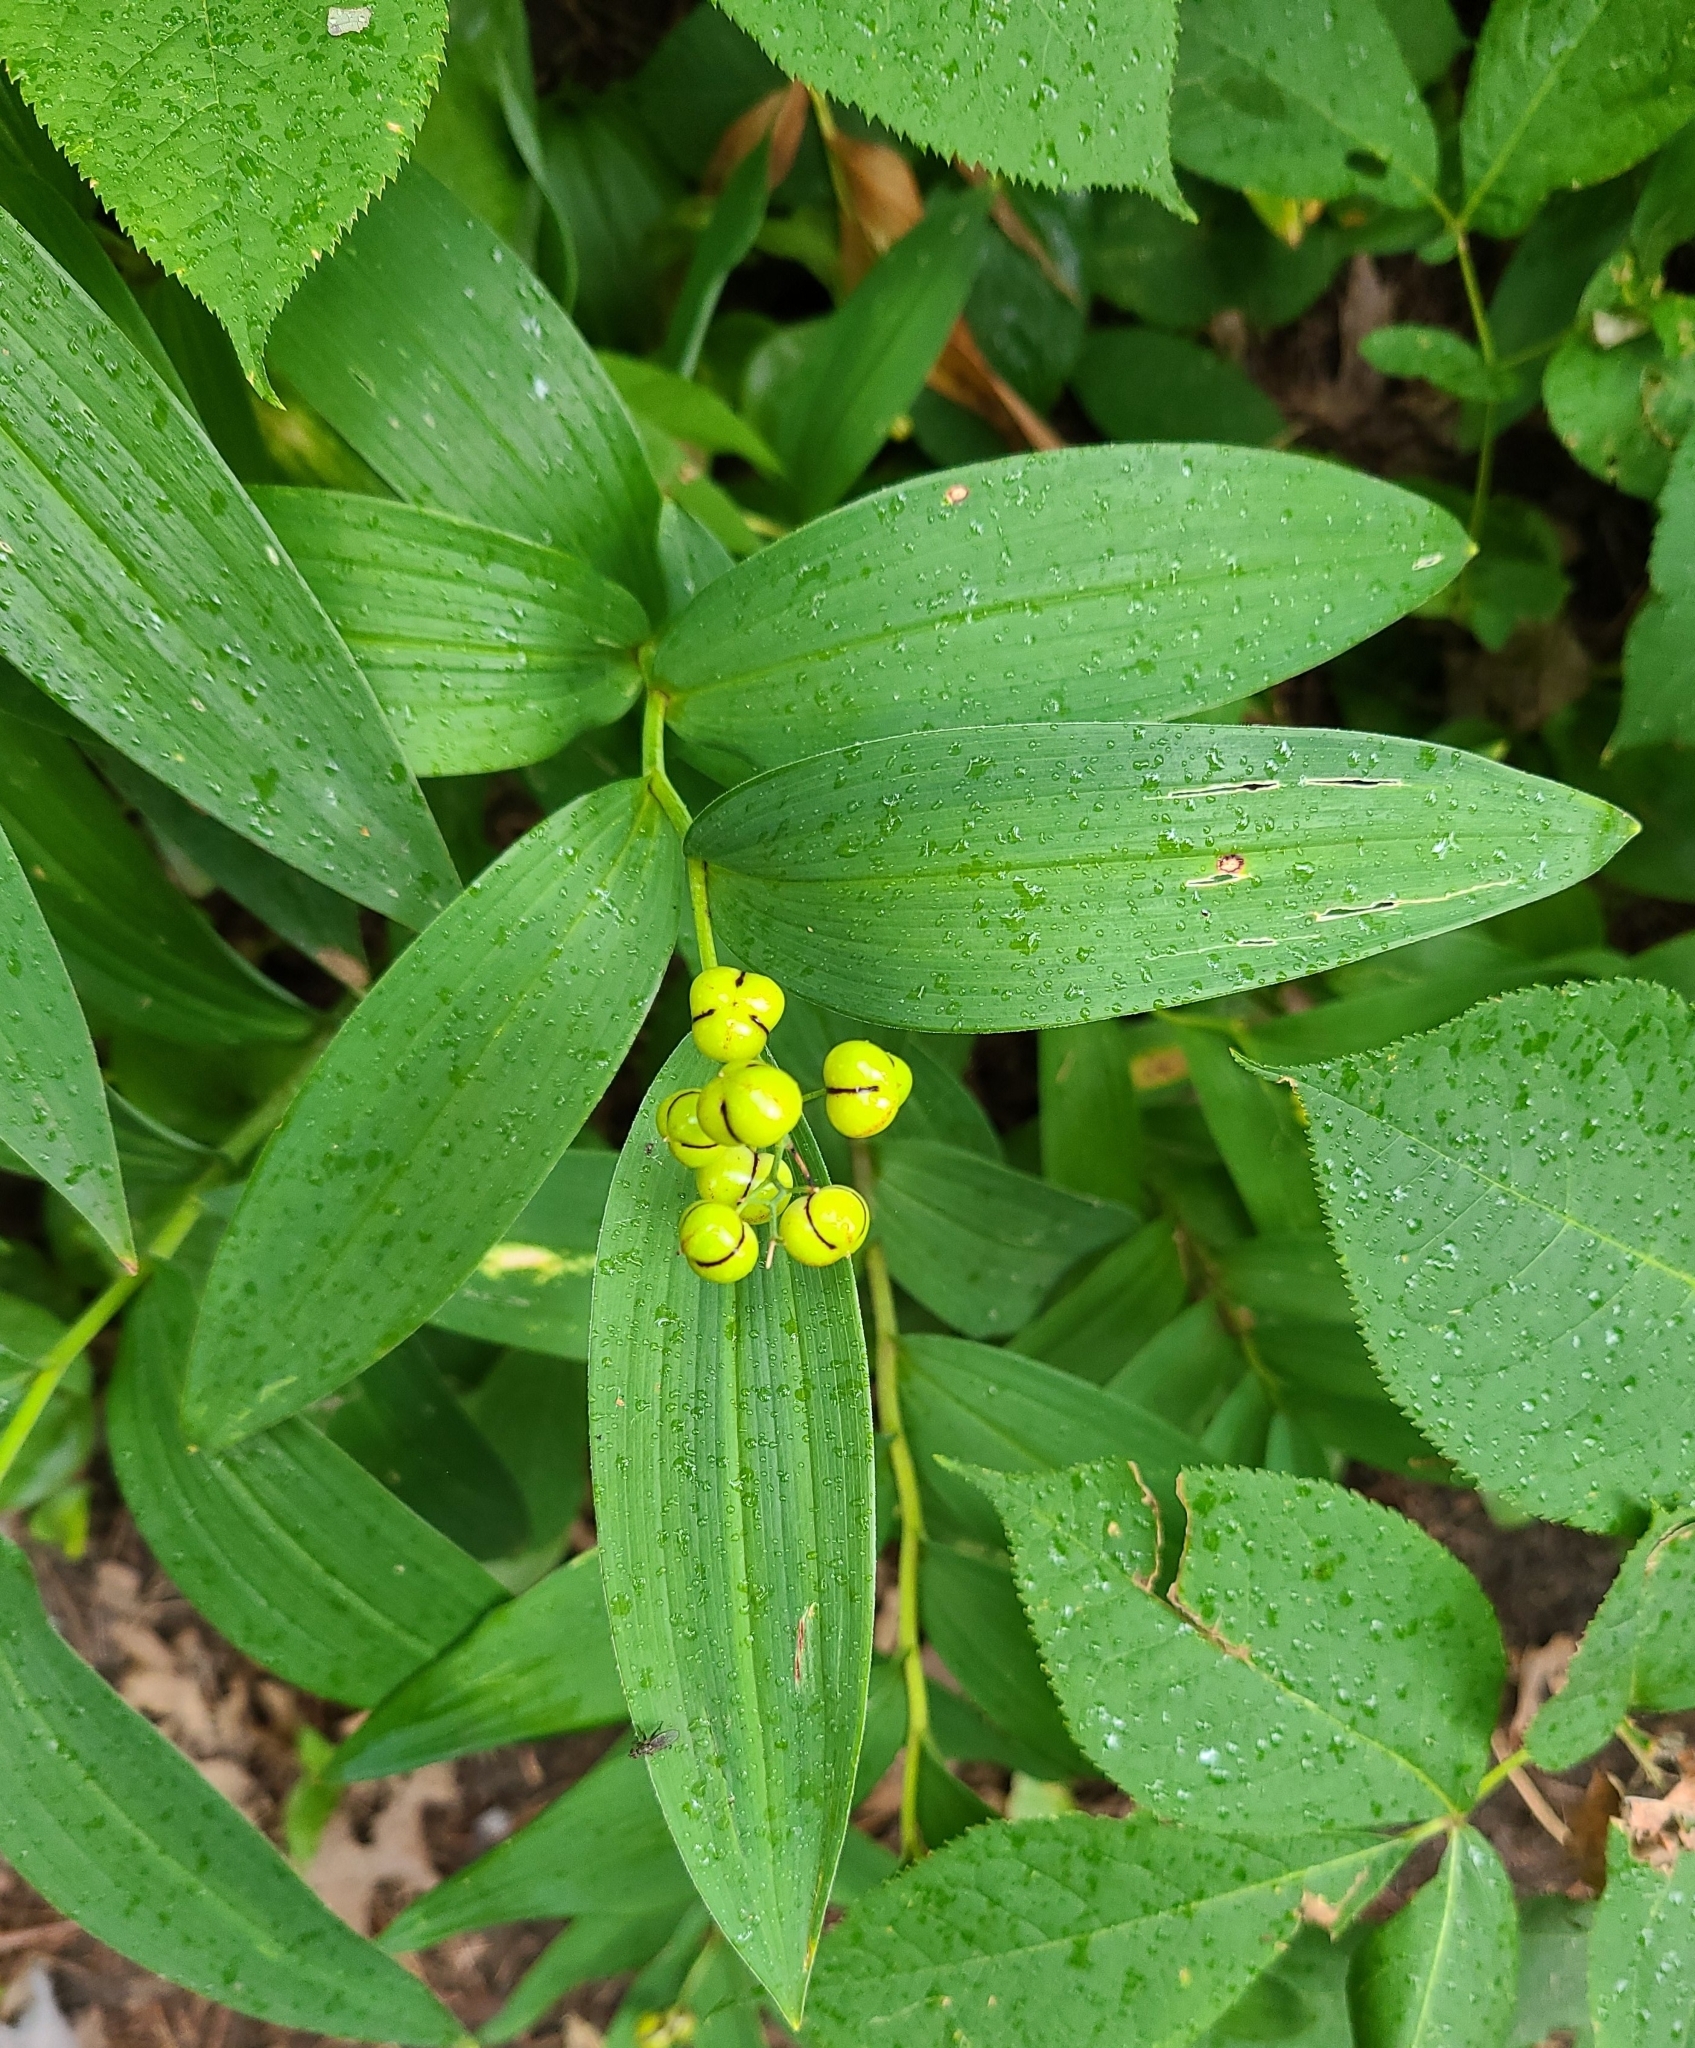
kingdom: Plantae
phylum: Tracheophyta
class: Liliopsida
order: Asparagales
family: Asparagaceae
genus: Maianthemum
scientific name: Maianthemum stellatum
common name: Little false solomon's seal
